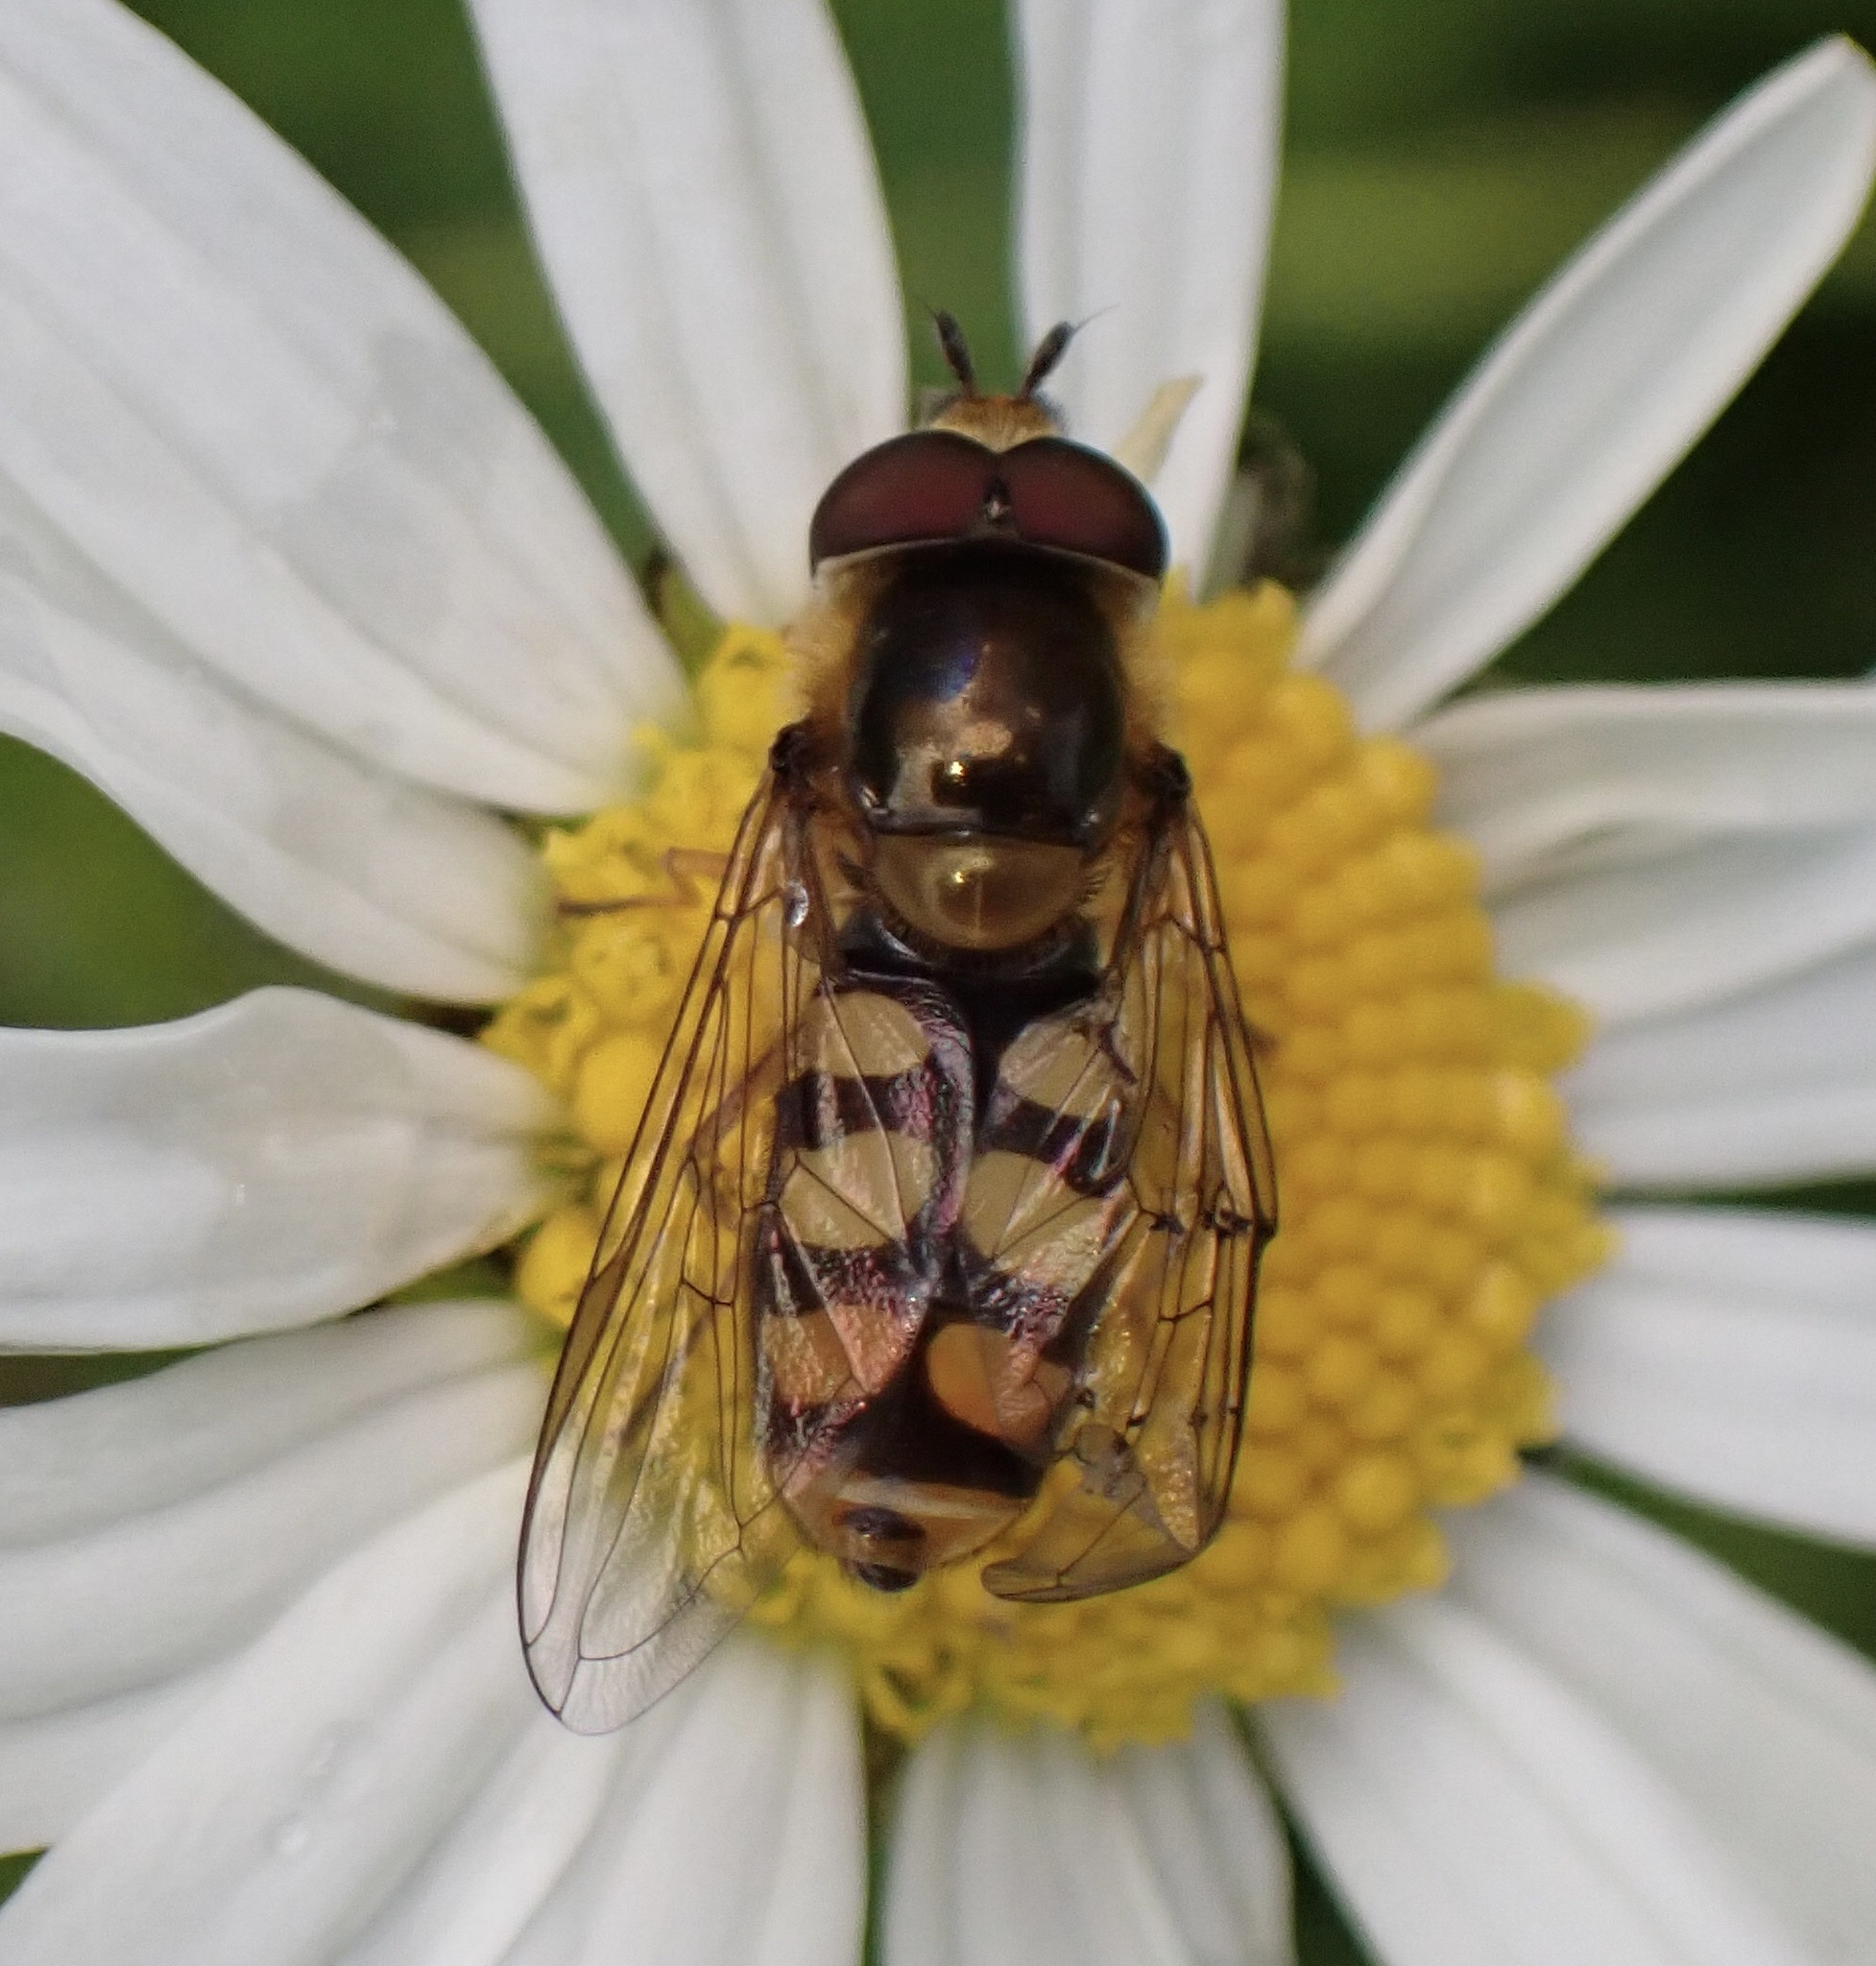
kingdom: Animalia
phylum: Arthropoda
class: Insecta
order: Diptera
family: Syrphidae
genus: Eupeodes
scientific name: Eupeodes
